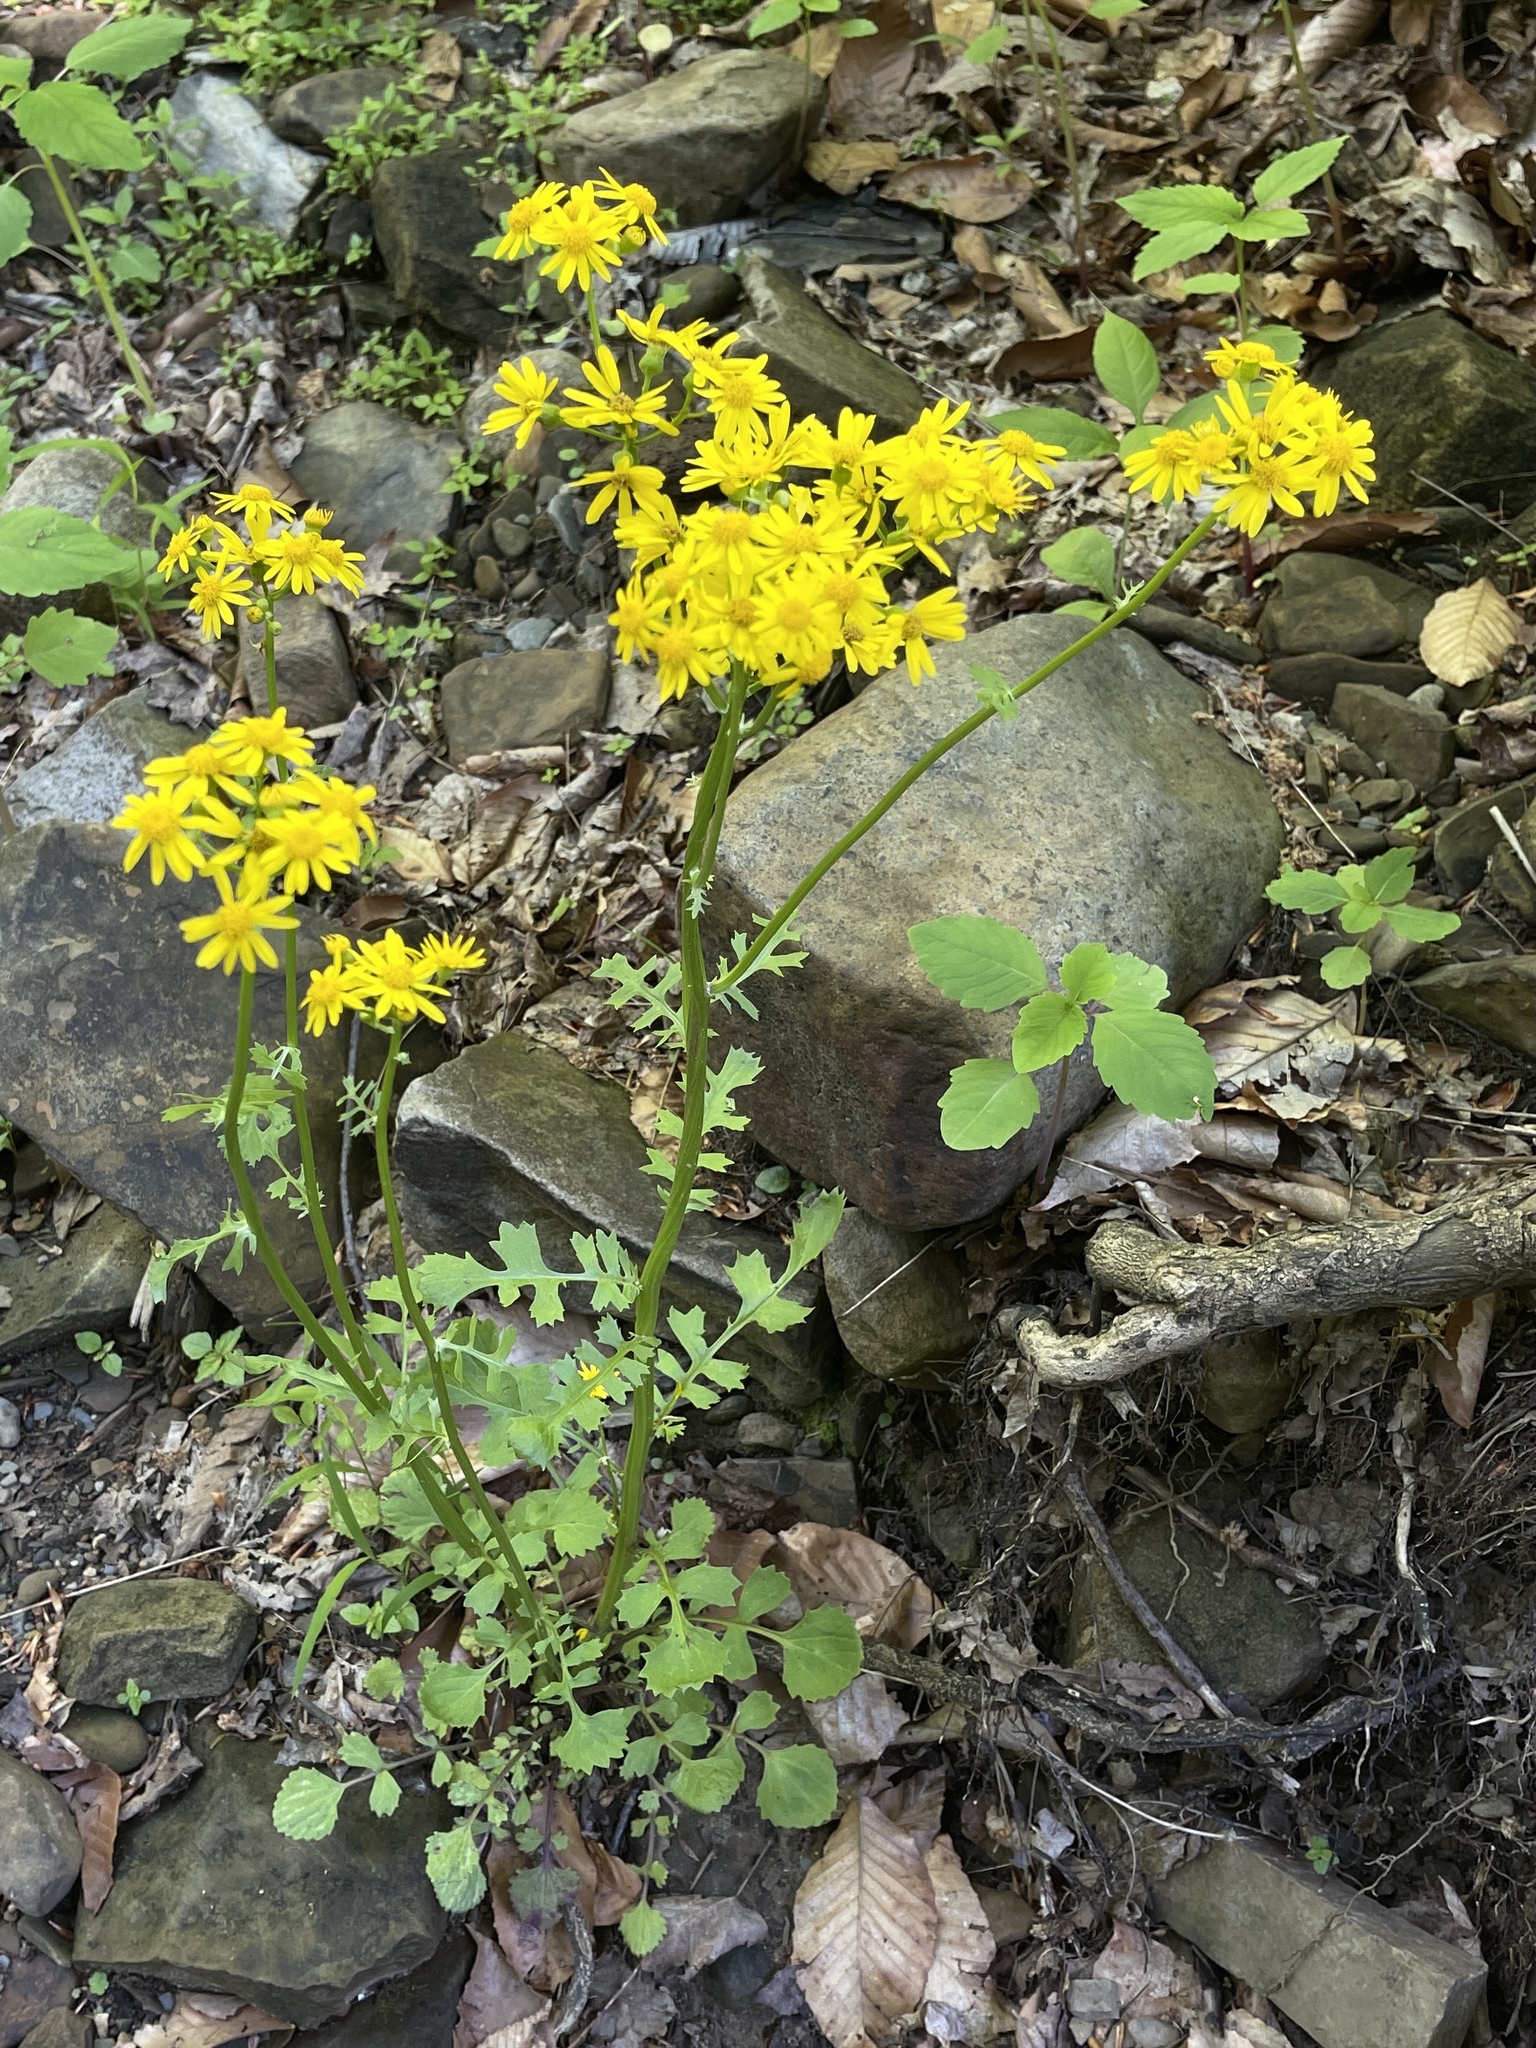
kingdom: Plantae
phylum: Tracheophyta
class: Magnoliopsida
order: Asterales
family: Asteraceae
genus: Packera
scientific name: Packera glabella
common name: Butterweed
